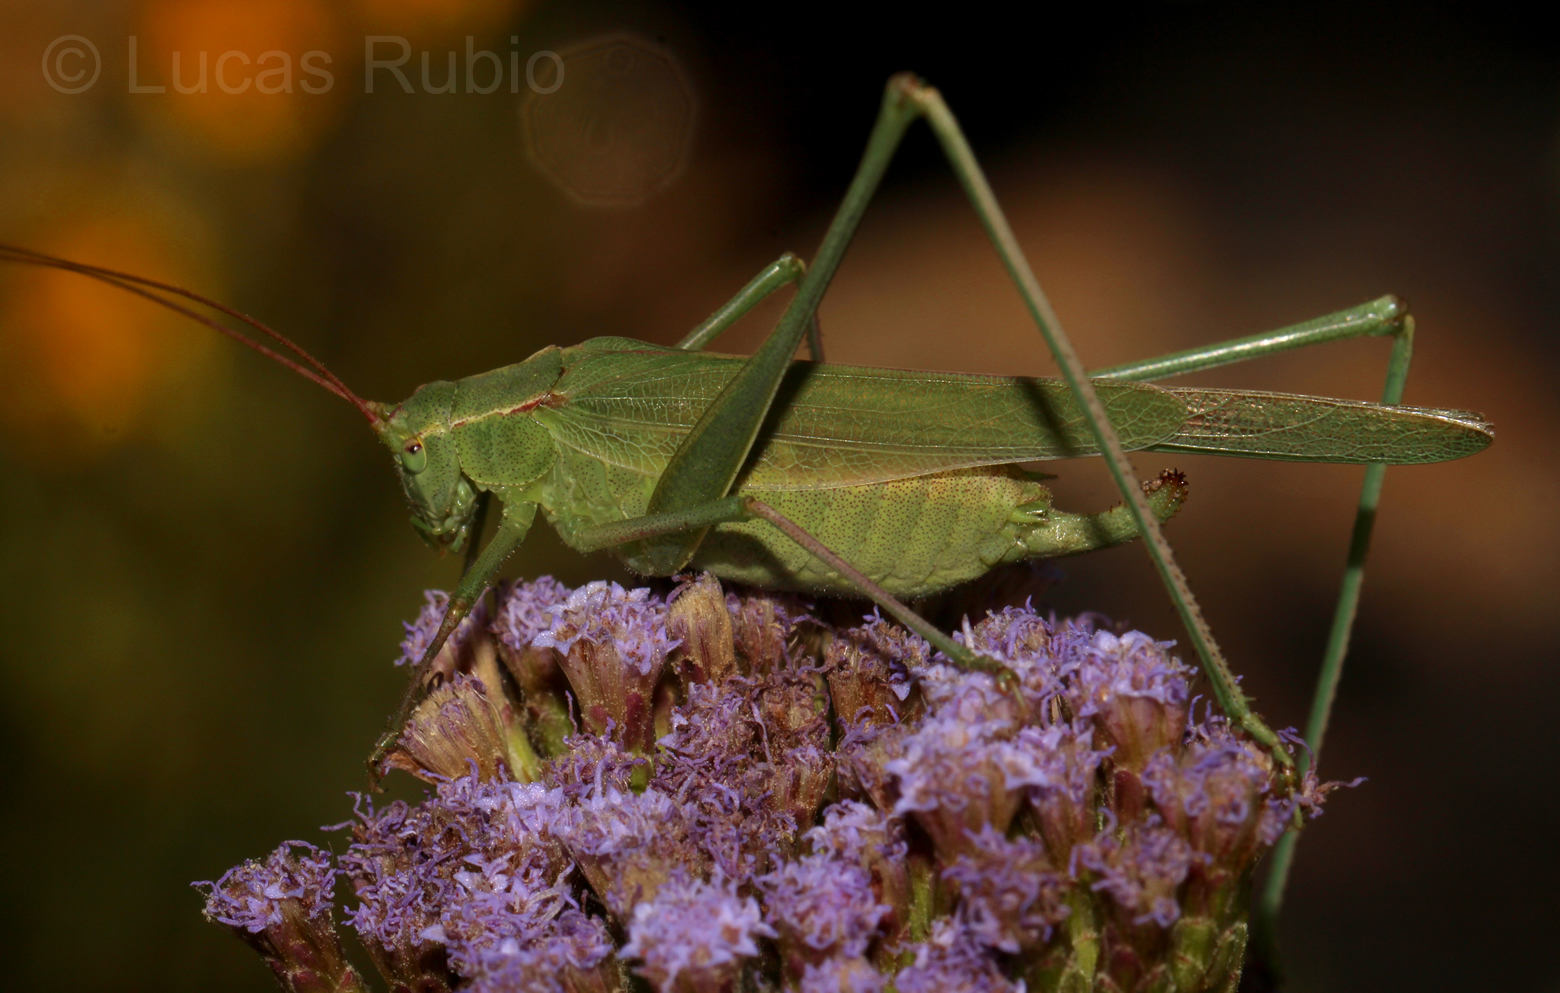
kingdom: Animalia
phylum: Arthropoda
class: Insecta
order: Orthoptera
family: Tettigoniidae
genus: Burgilis
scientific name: Burgilis curta
